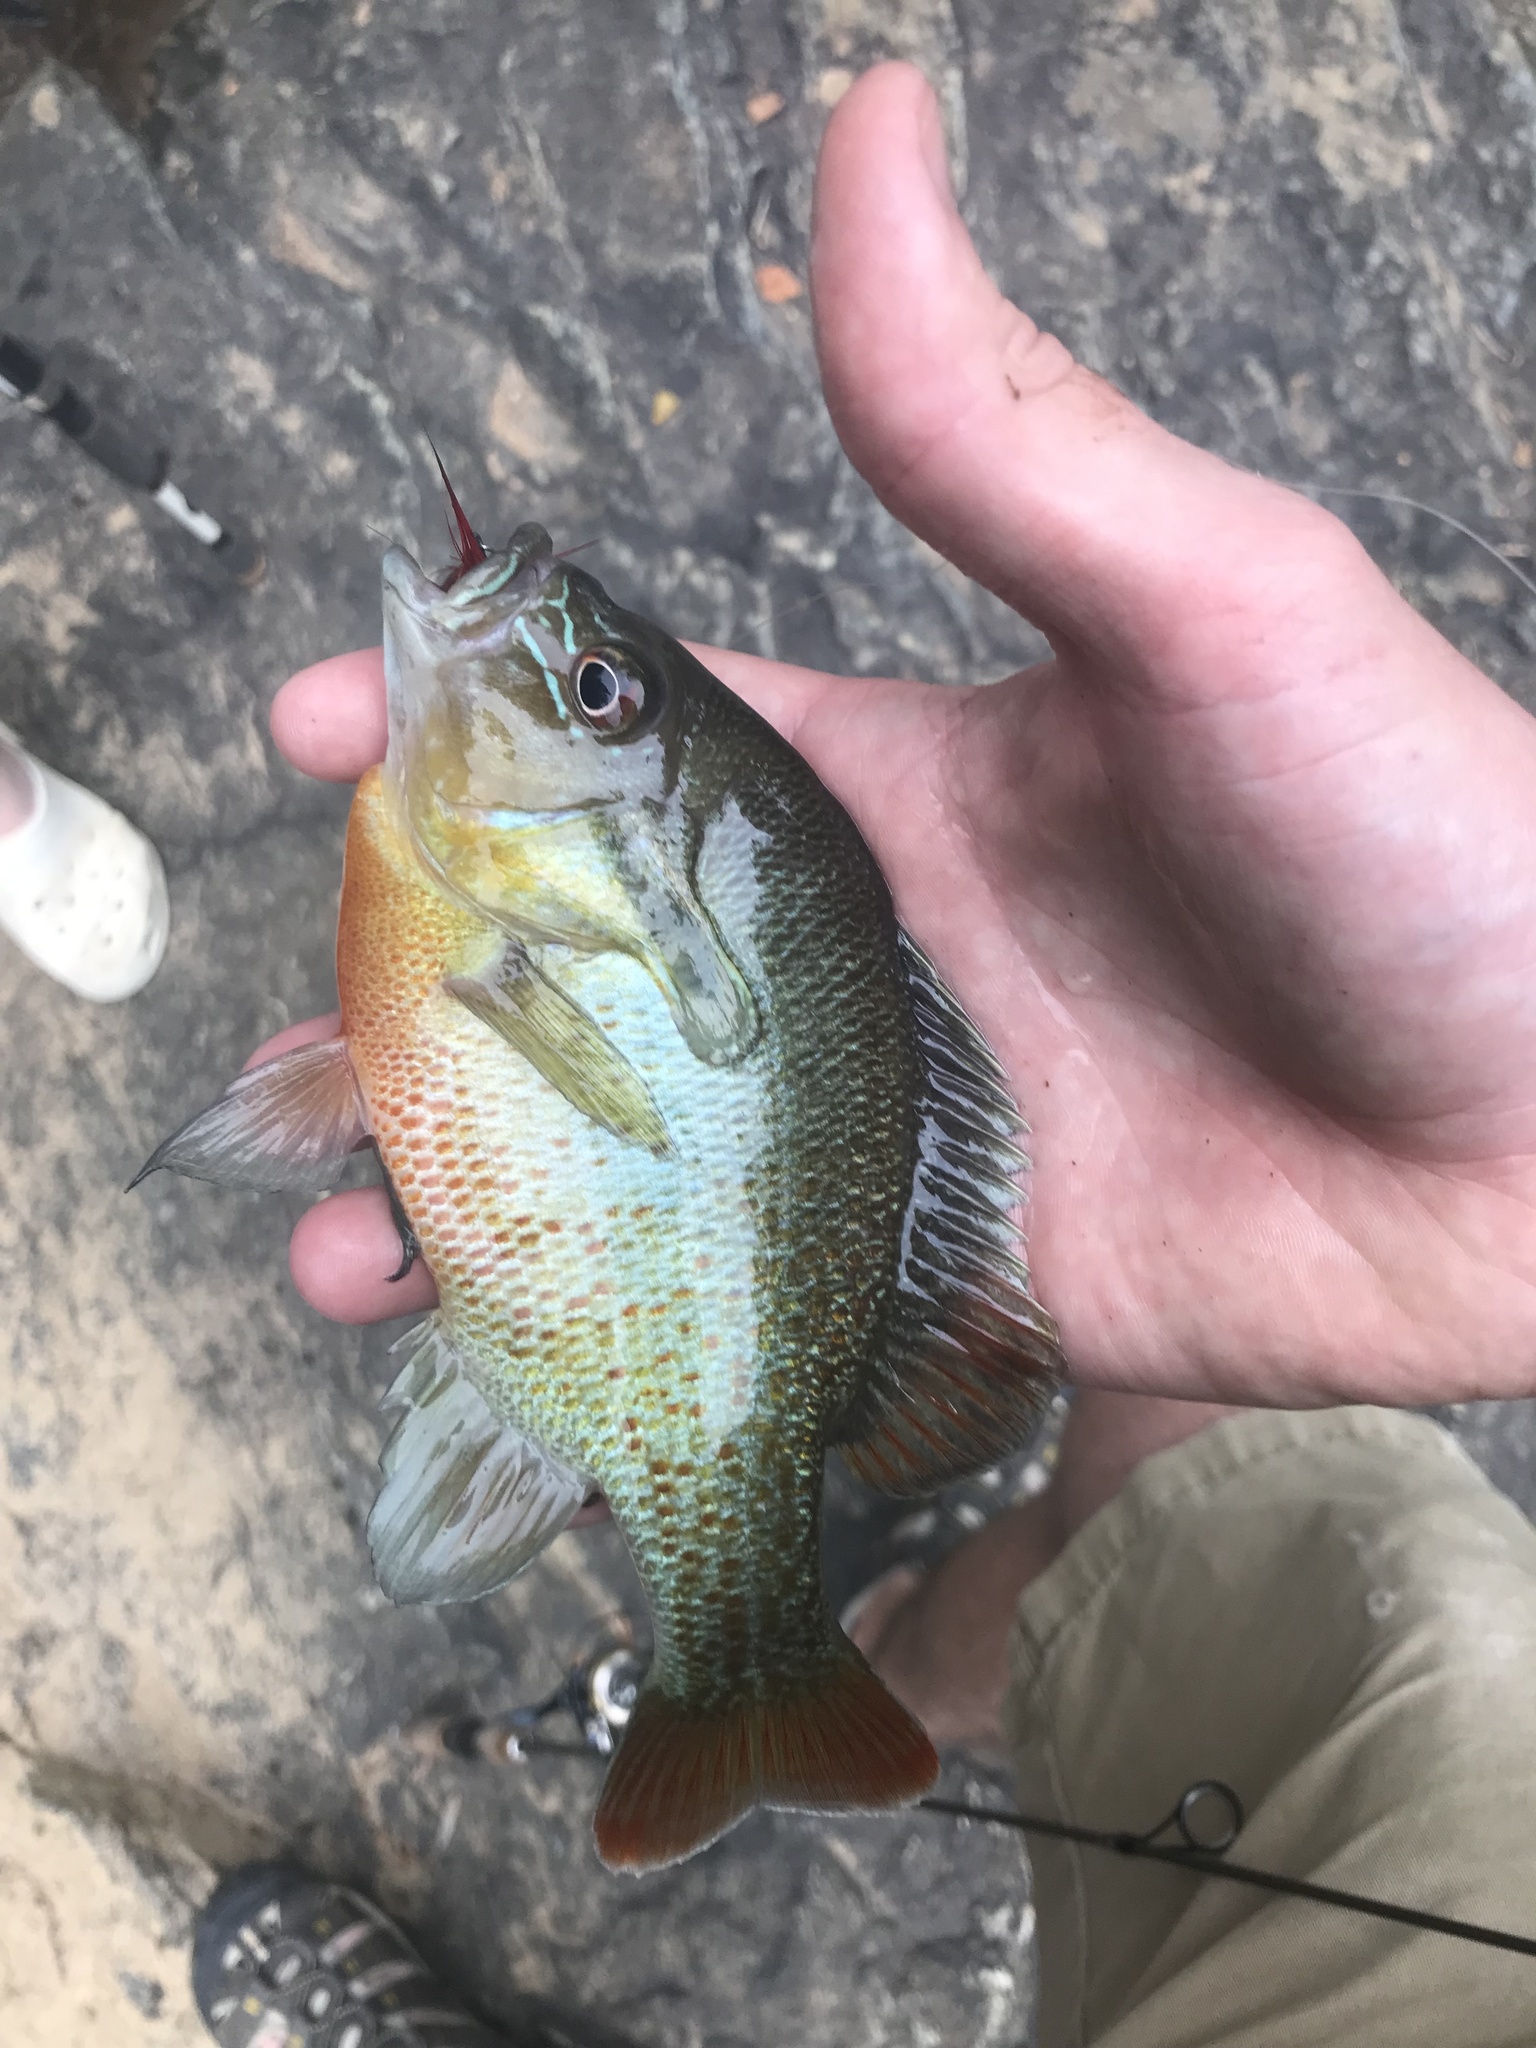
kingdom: Animalia
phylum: Chordata
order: Perciformes
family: Centrarchidae
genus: Lepomis
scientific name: Lepomis auritus
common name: Redbreast sunfish
